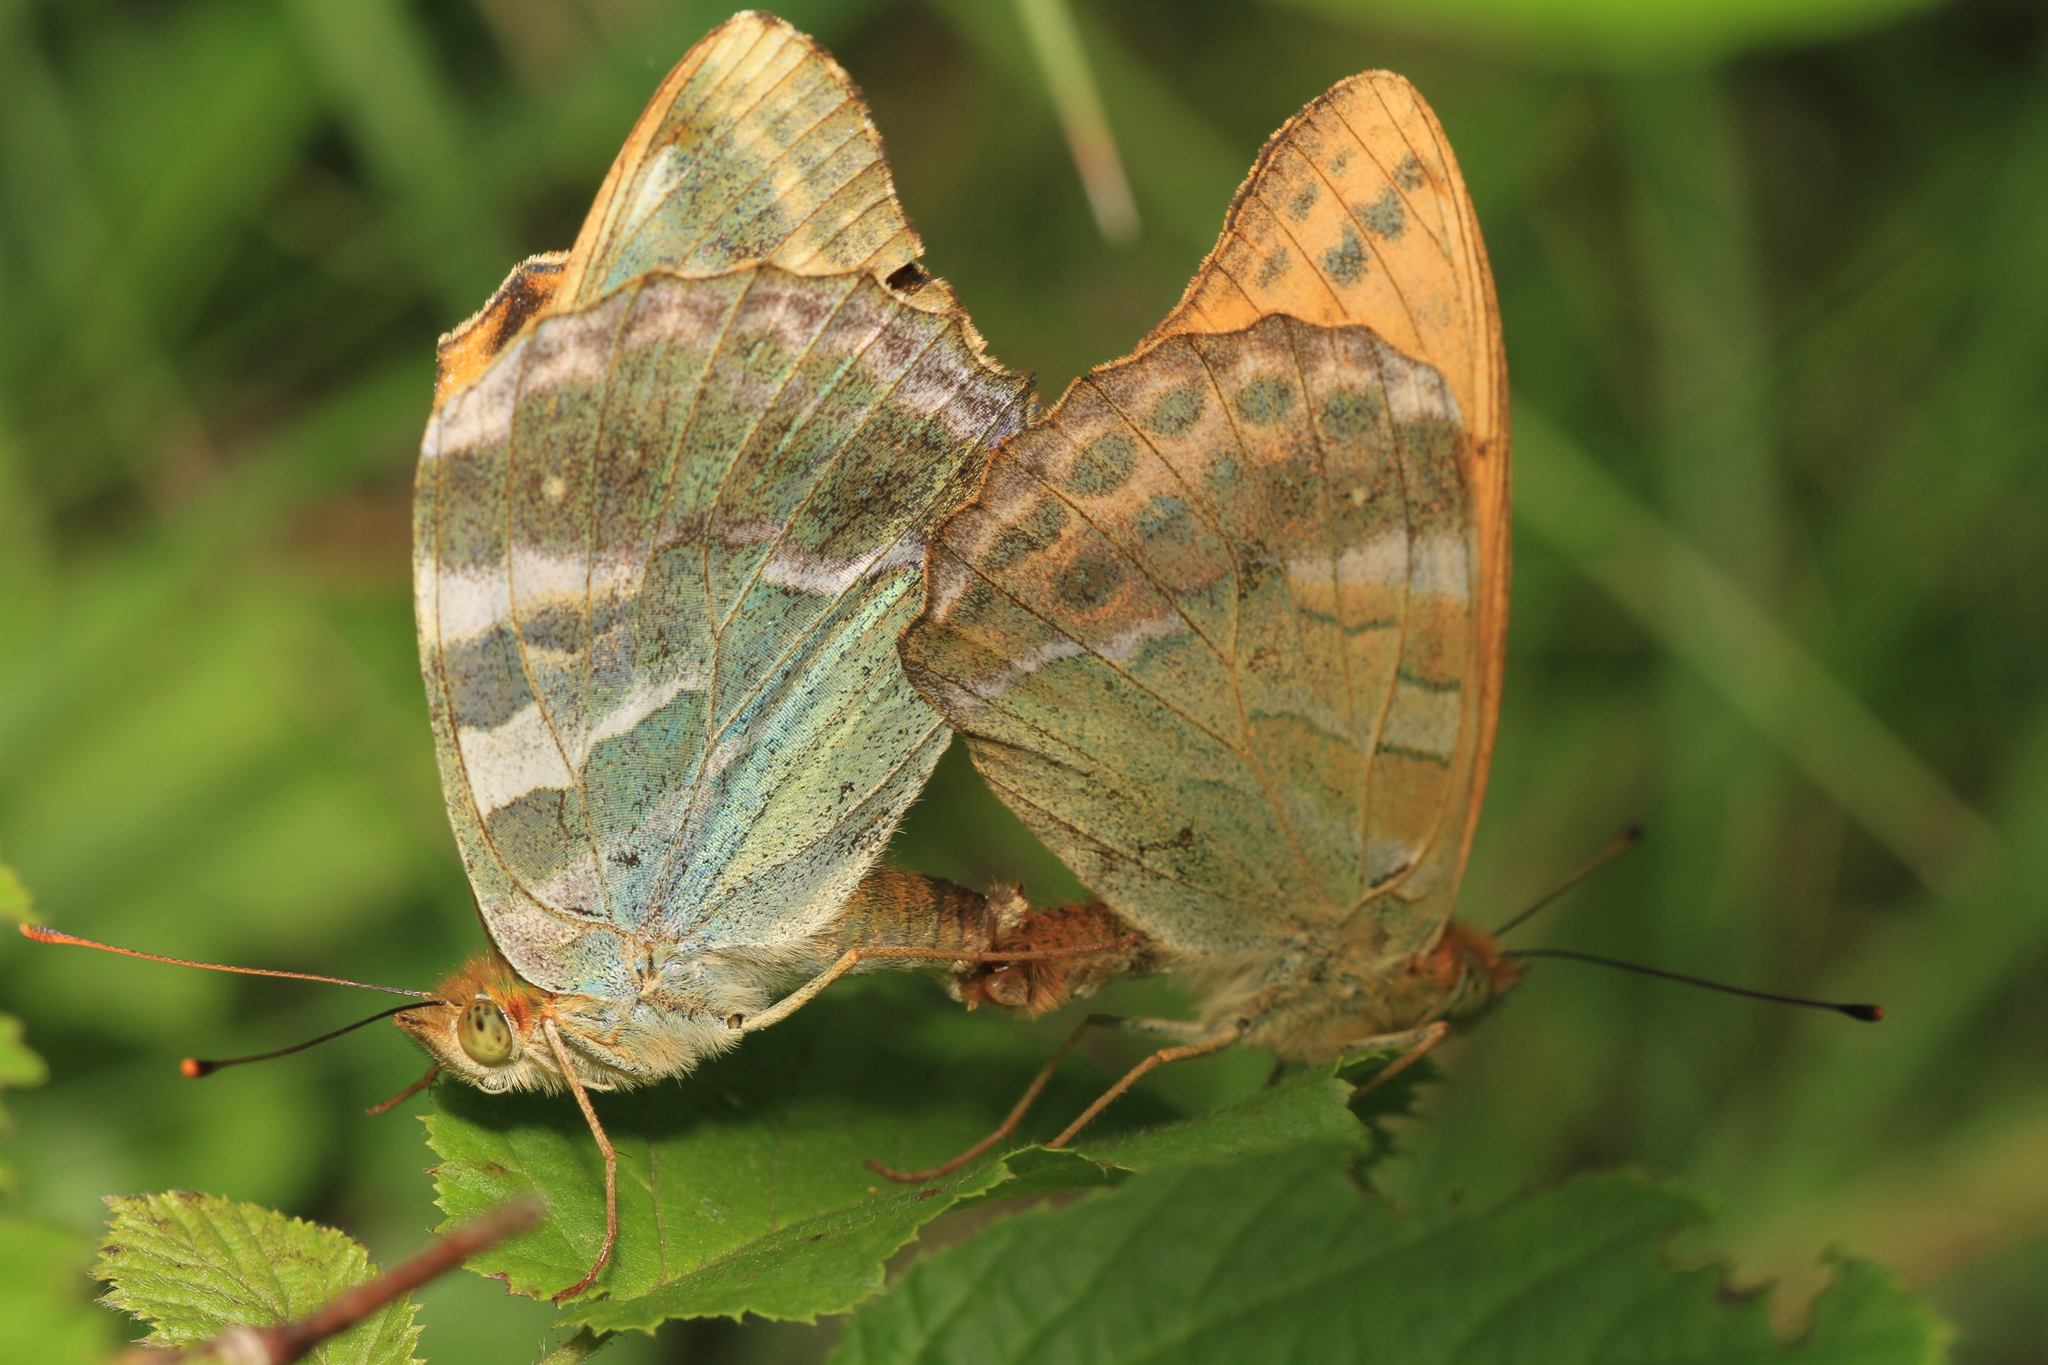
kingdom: Animalia
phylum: Arthropoda
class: Insecta
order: Lepidoptera
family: Nymphalidae
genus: Argynnis
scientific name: Argynnis paphia
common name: Silver-washed fritillary
